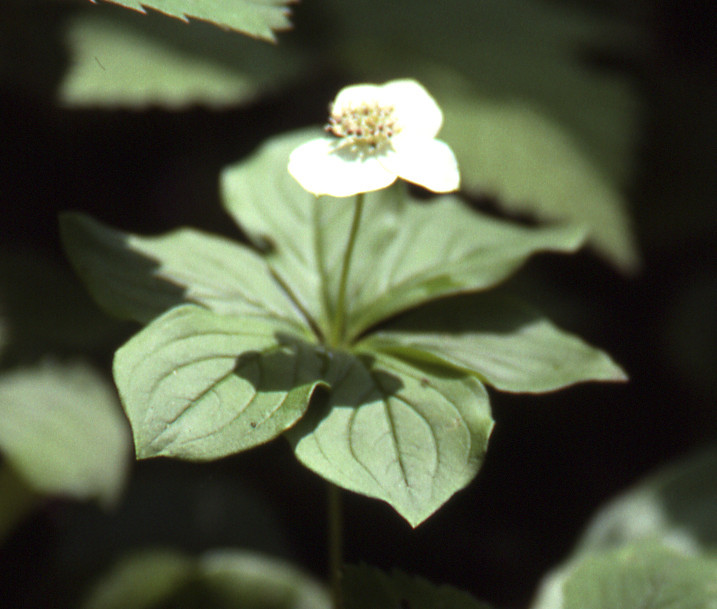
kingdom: Plantae
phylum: Tracheophyta
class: Magnoliopsida
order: Cornales
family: Cornaceae
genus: Cornus
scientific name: Cornus canadensis
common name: Creeping dogwood
